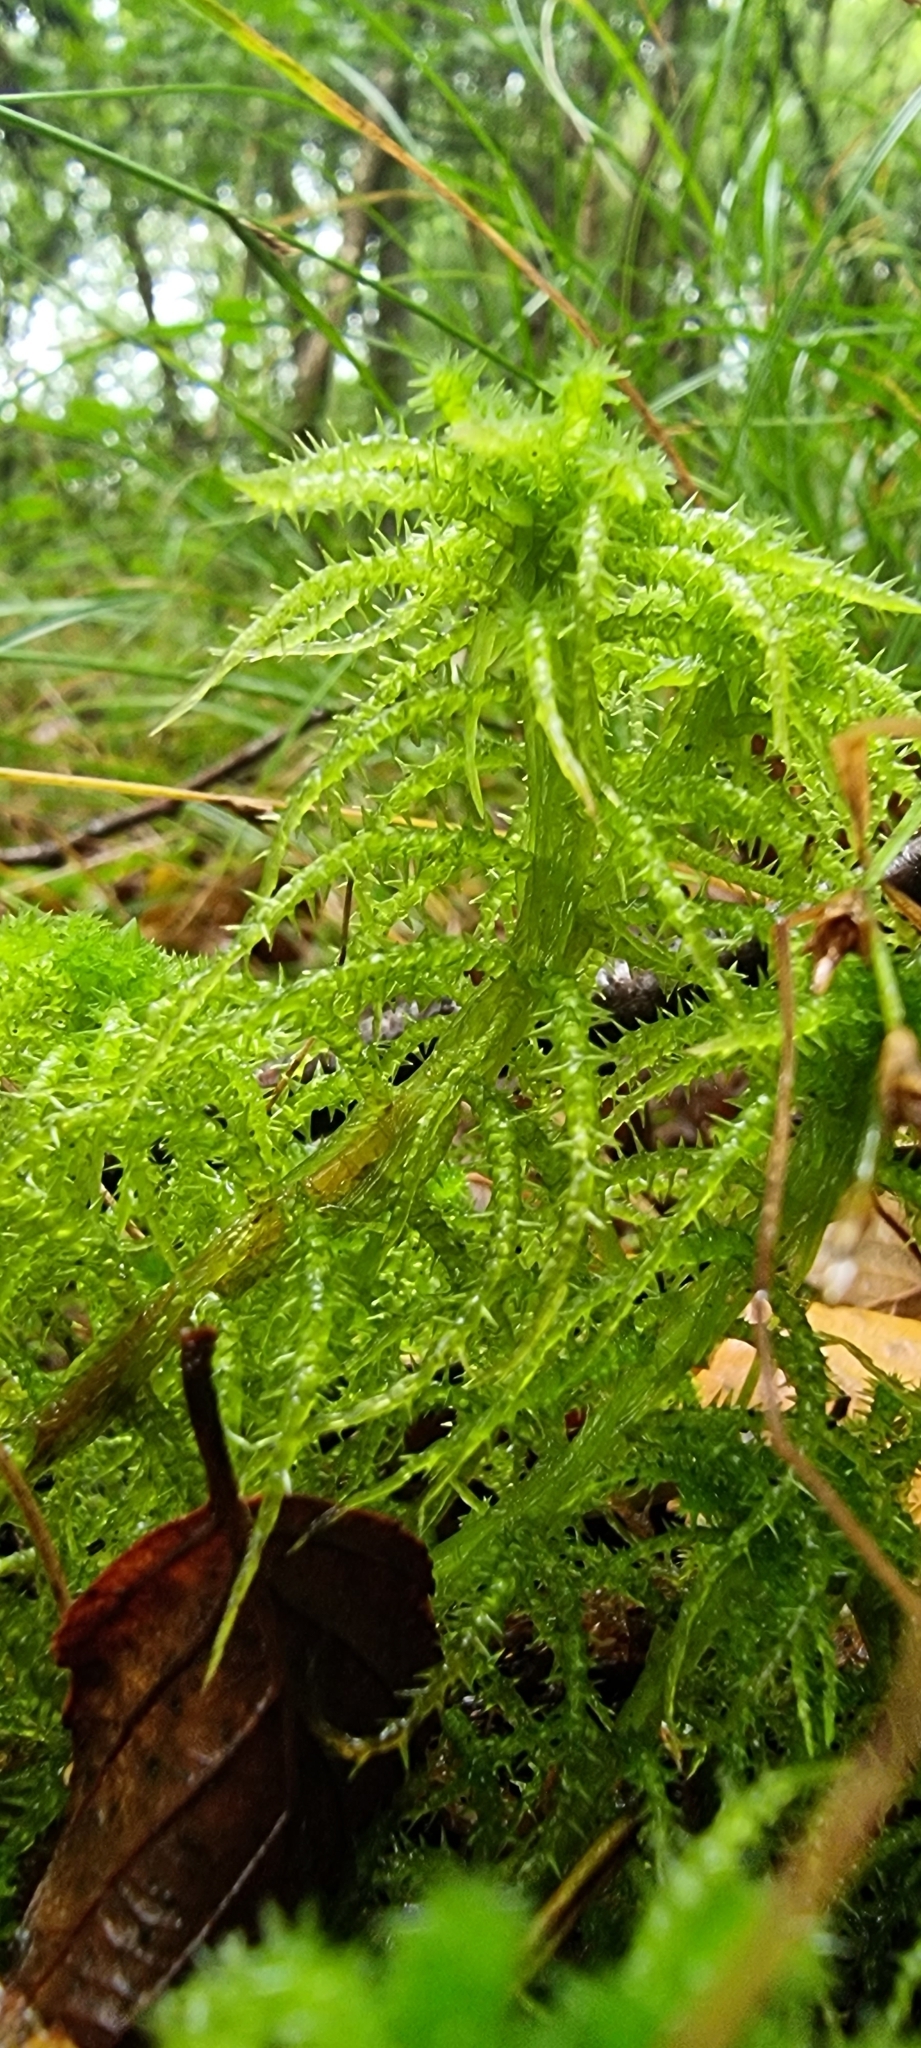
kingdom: Plantae
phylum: Bryophyta
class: Sphagnopsida
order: Sphagnales
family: Sphagnaceae
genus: Sphagnum
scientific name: Sphagnum squarrosum
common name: Shaggy peat moss
